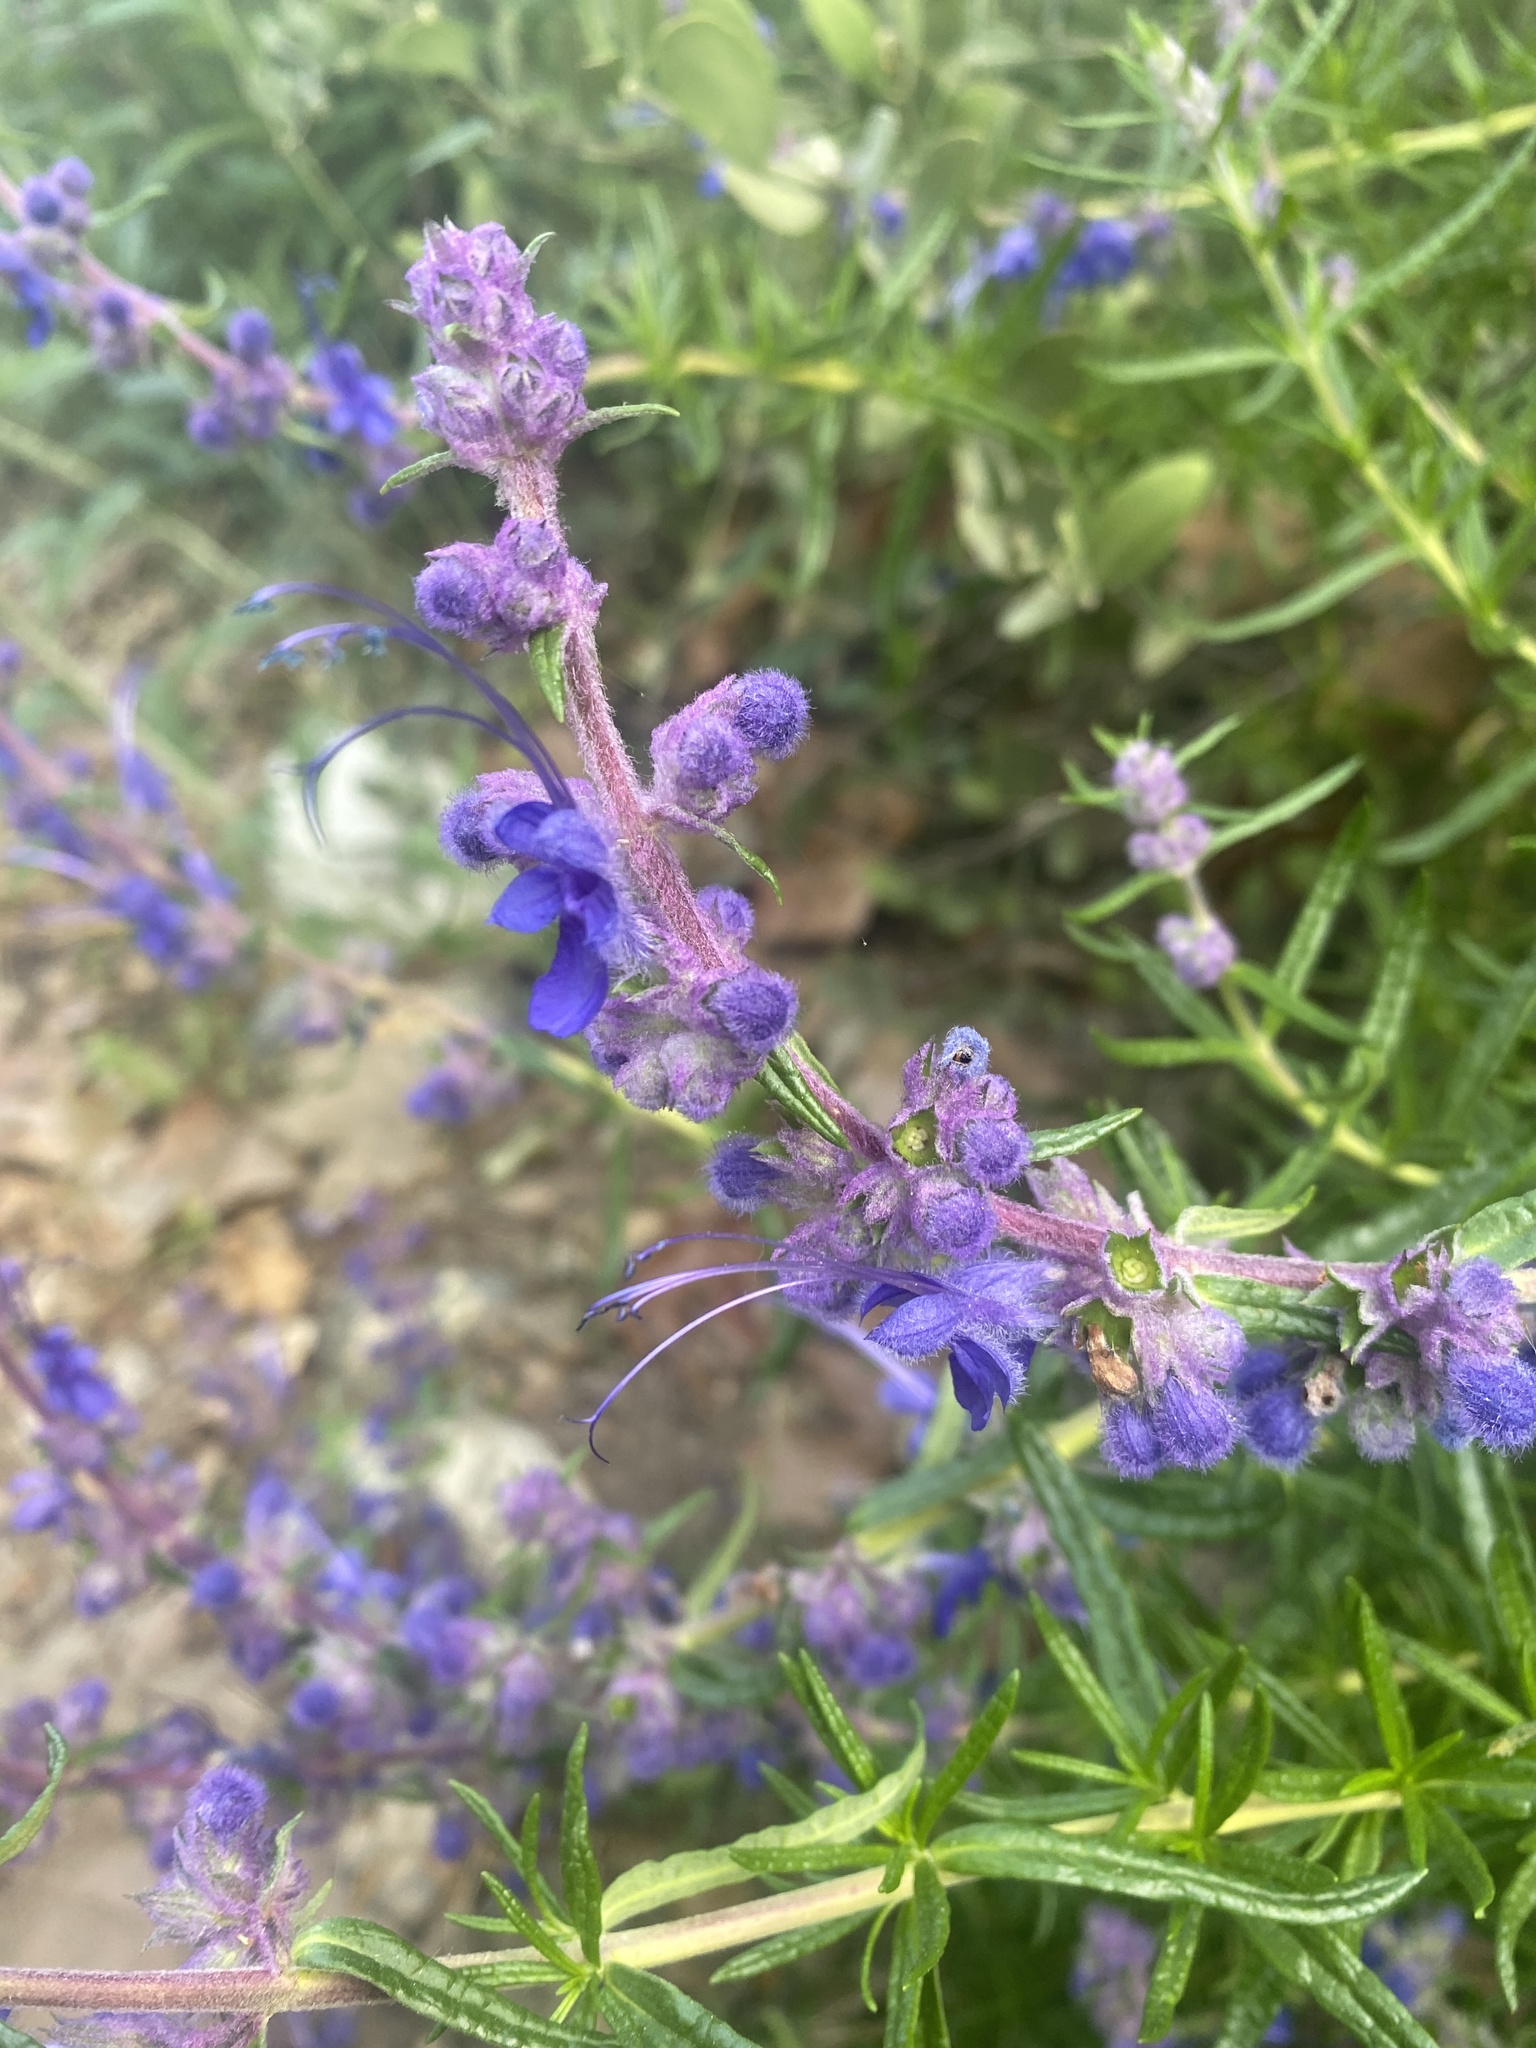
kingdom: Plantae
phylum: Tracheophyta
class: Magnoliopsida
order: Lamiales
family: Lamiaceae
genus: Trichostema
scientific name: Trichostema lanatum
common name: Woolly bluecurls
